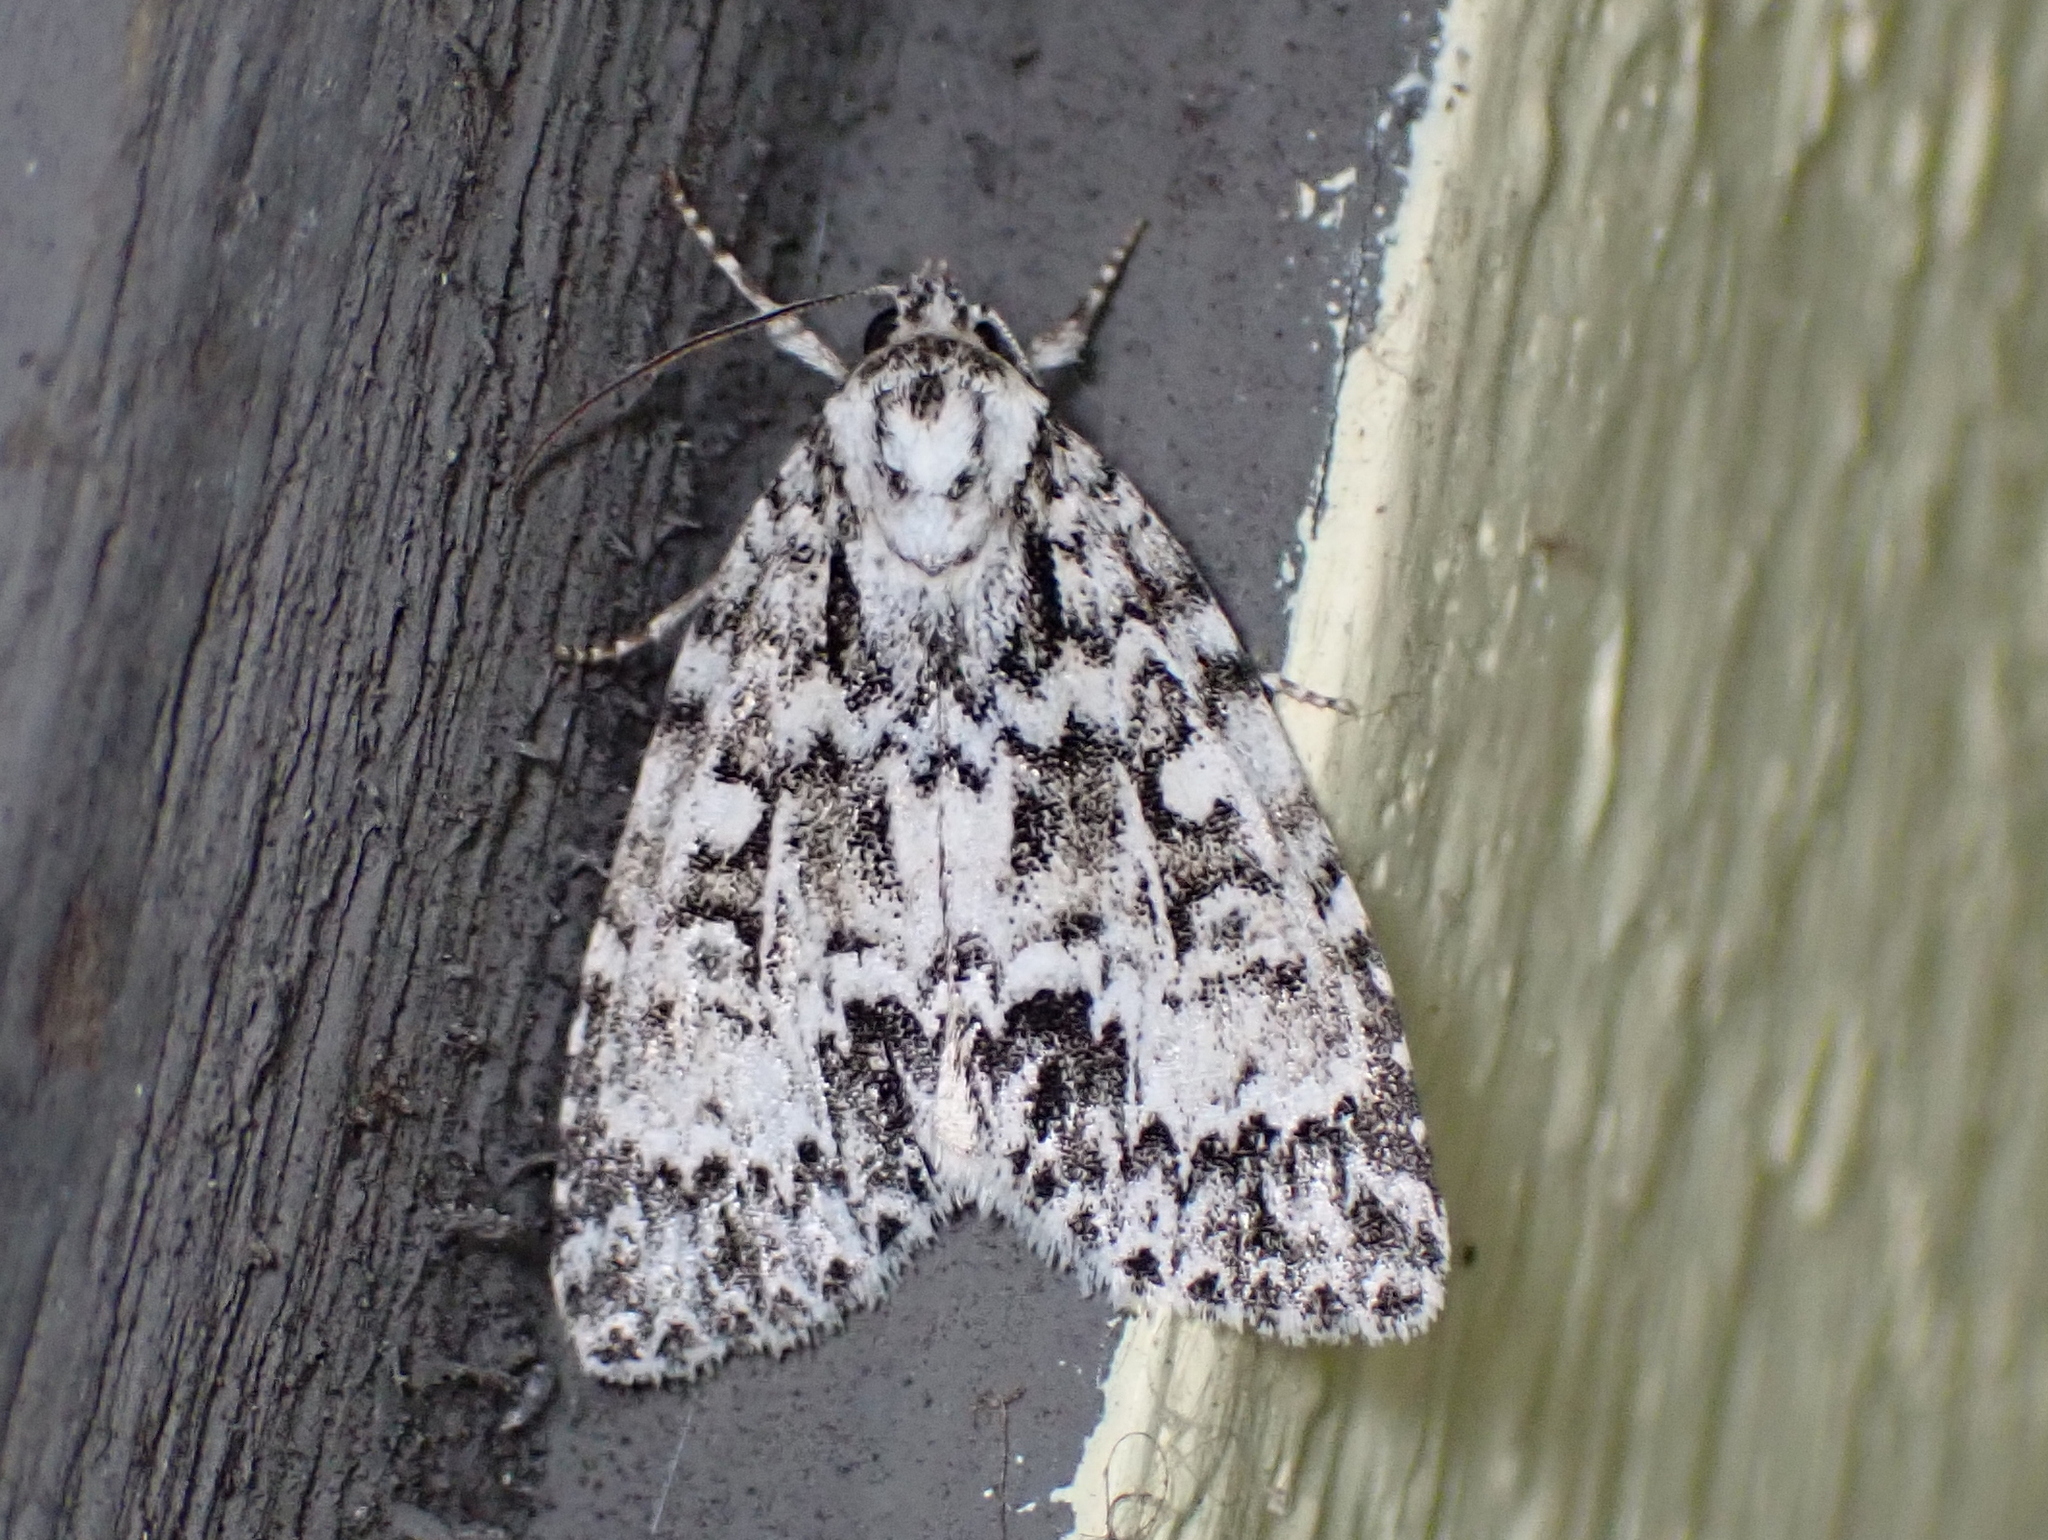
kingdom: Animalia
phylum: Arthropoda
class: Insecta
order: Lepidoptera
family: Noctuidae
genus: Acronicta
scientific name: Acronicta fragilis
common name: Fragile dagger
